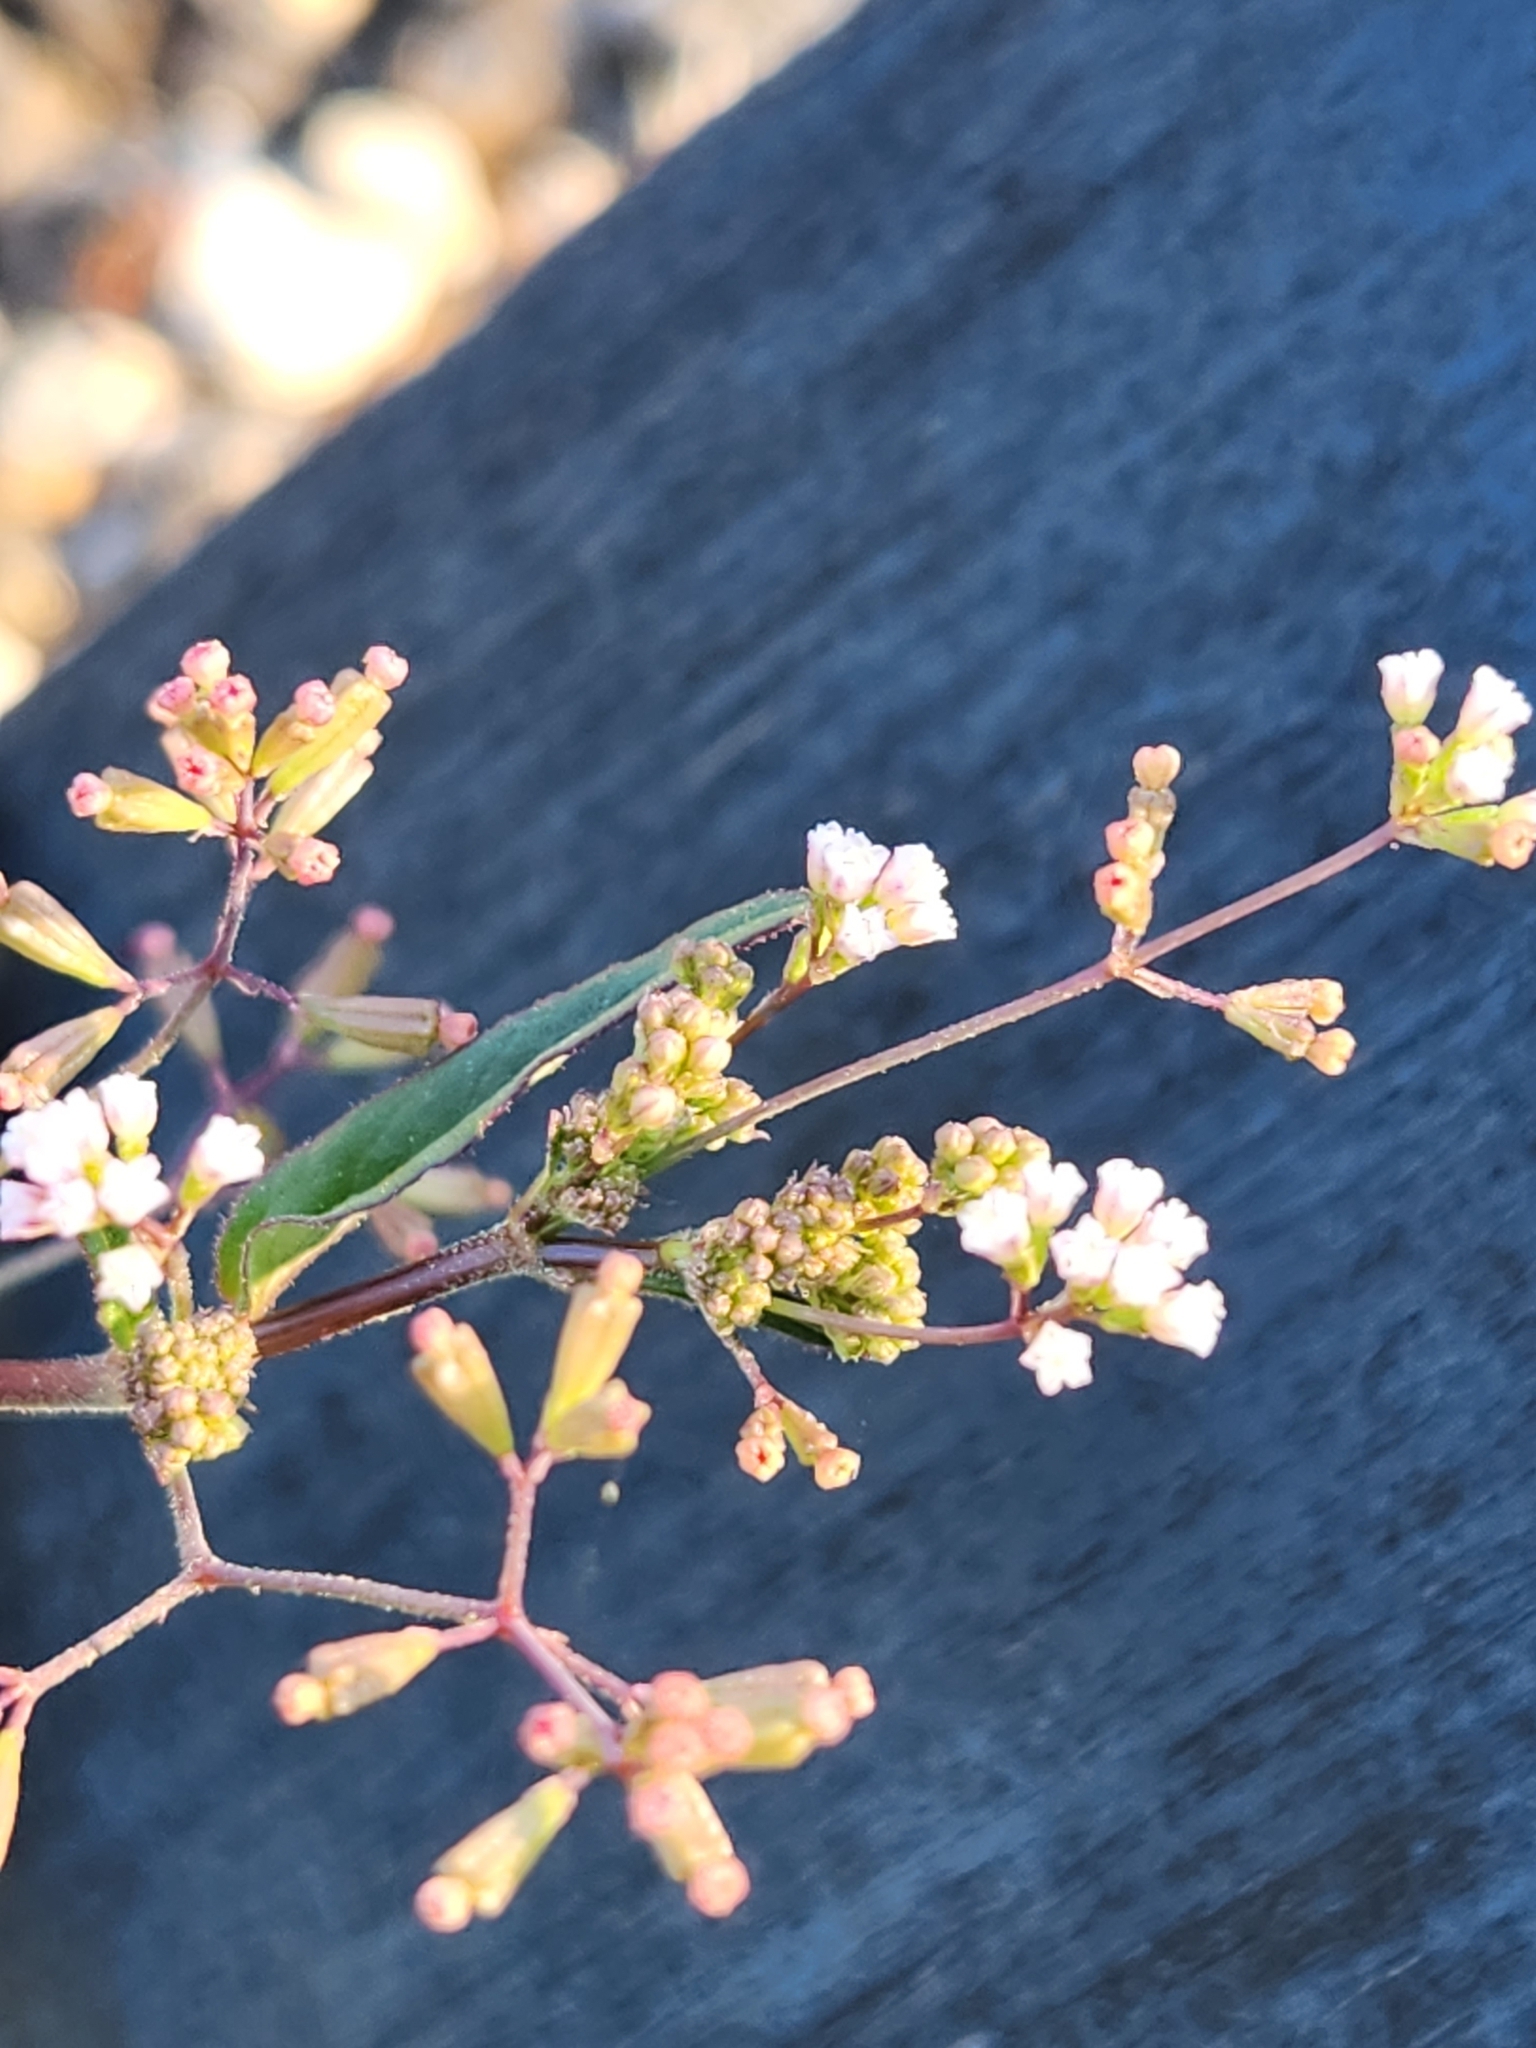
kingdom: Plantae
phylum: Tracheophyta
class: Magnoliopsida
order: Caryophyllales
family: Nyctaginaceae
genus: Boerhavia
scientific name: Boerhavia erecta
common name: Erect spiderling
